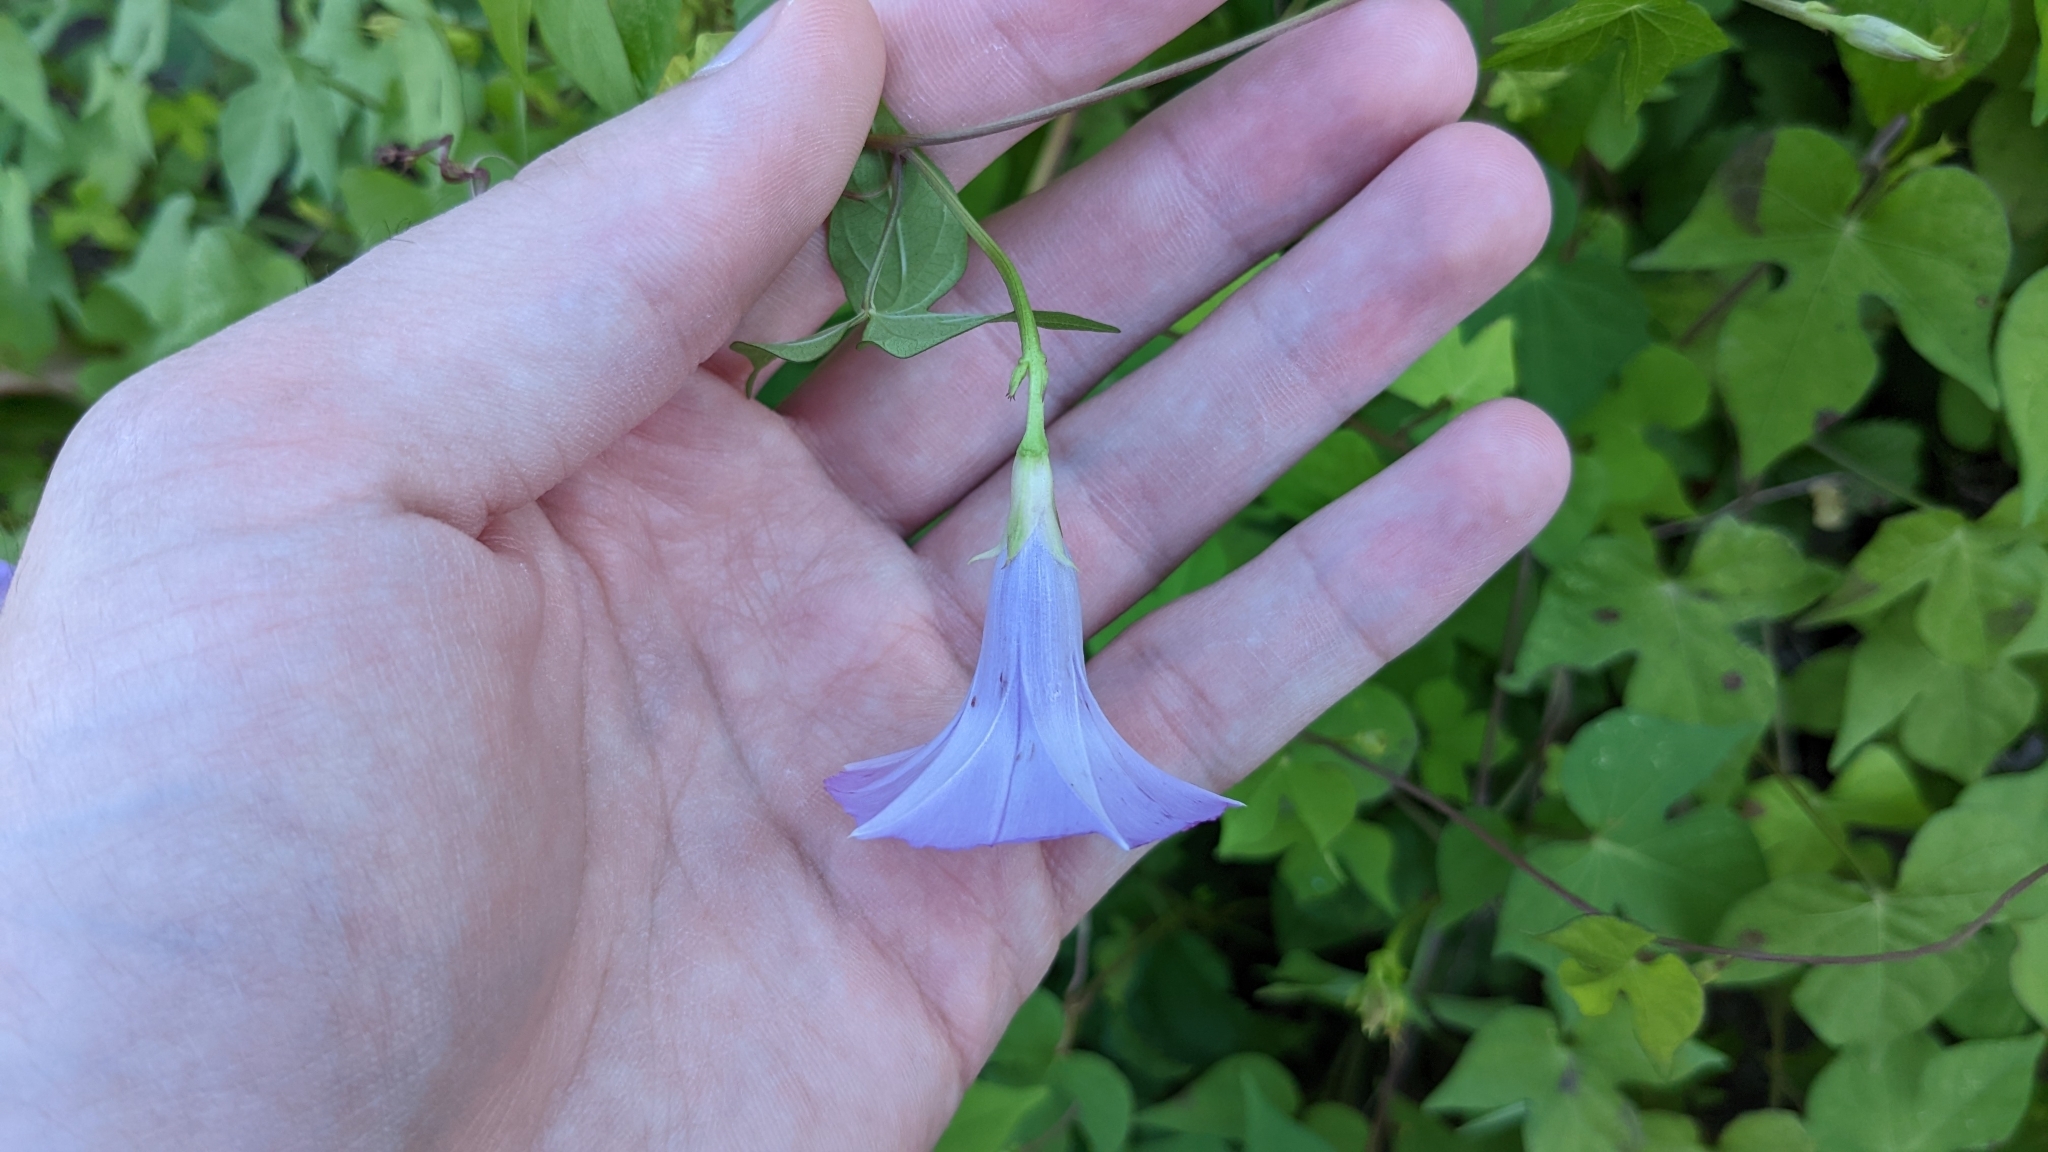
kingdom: Plantae
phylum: Tracheophyta
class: Magnoliopsida
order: Solanales
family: Convolvulaceae
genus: Ipomoea
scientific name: Ipomoea cordatotriloba
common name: Cotton morning glory
